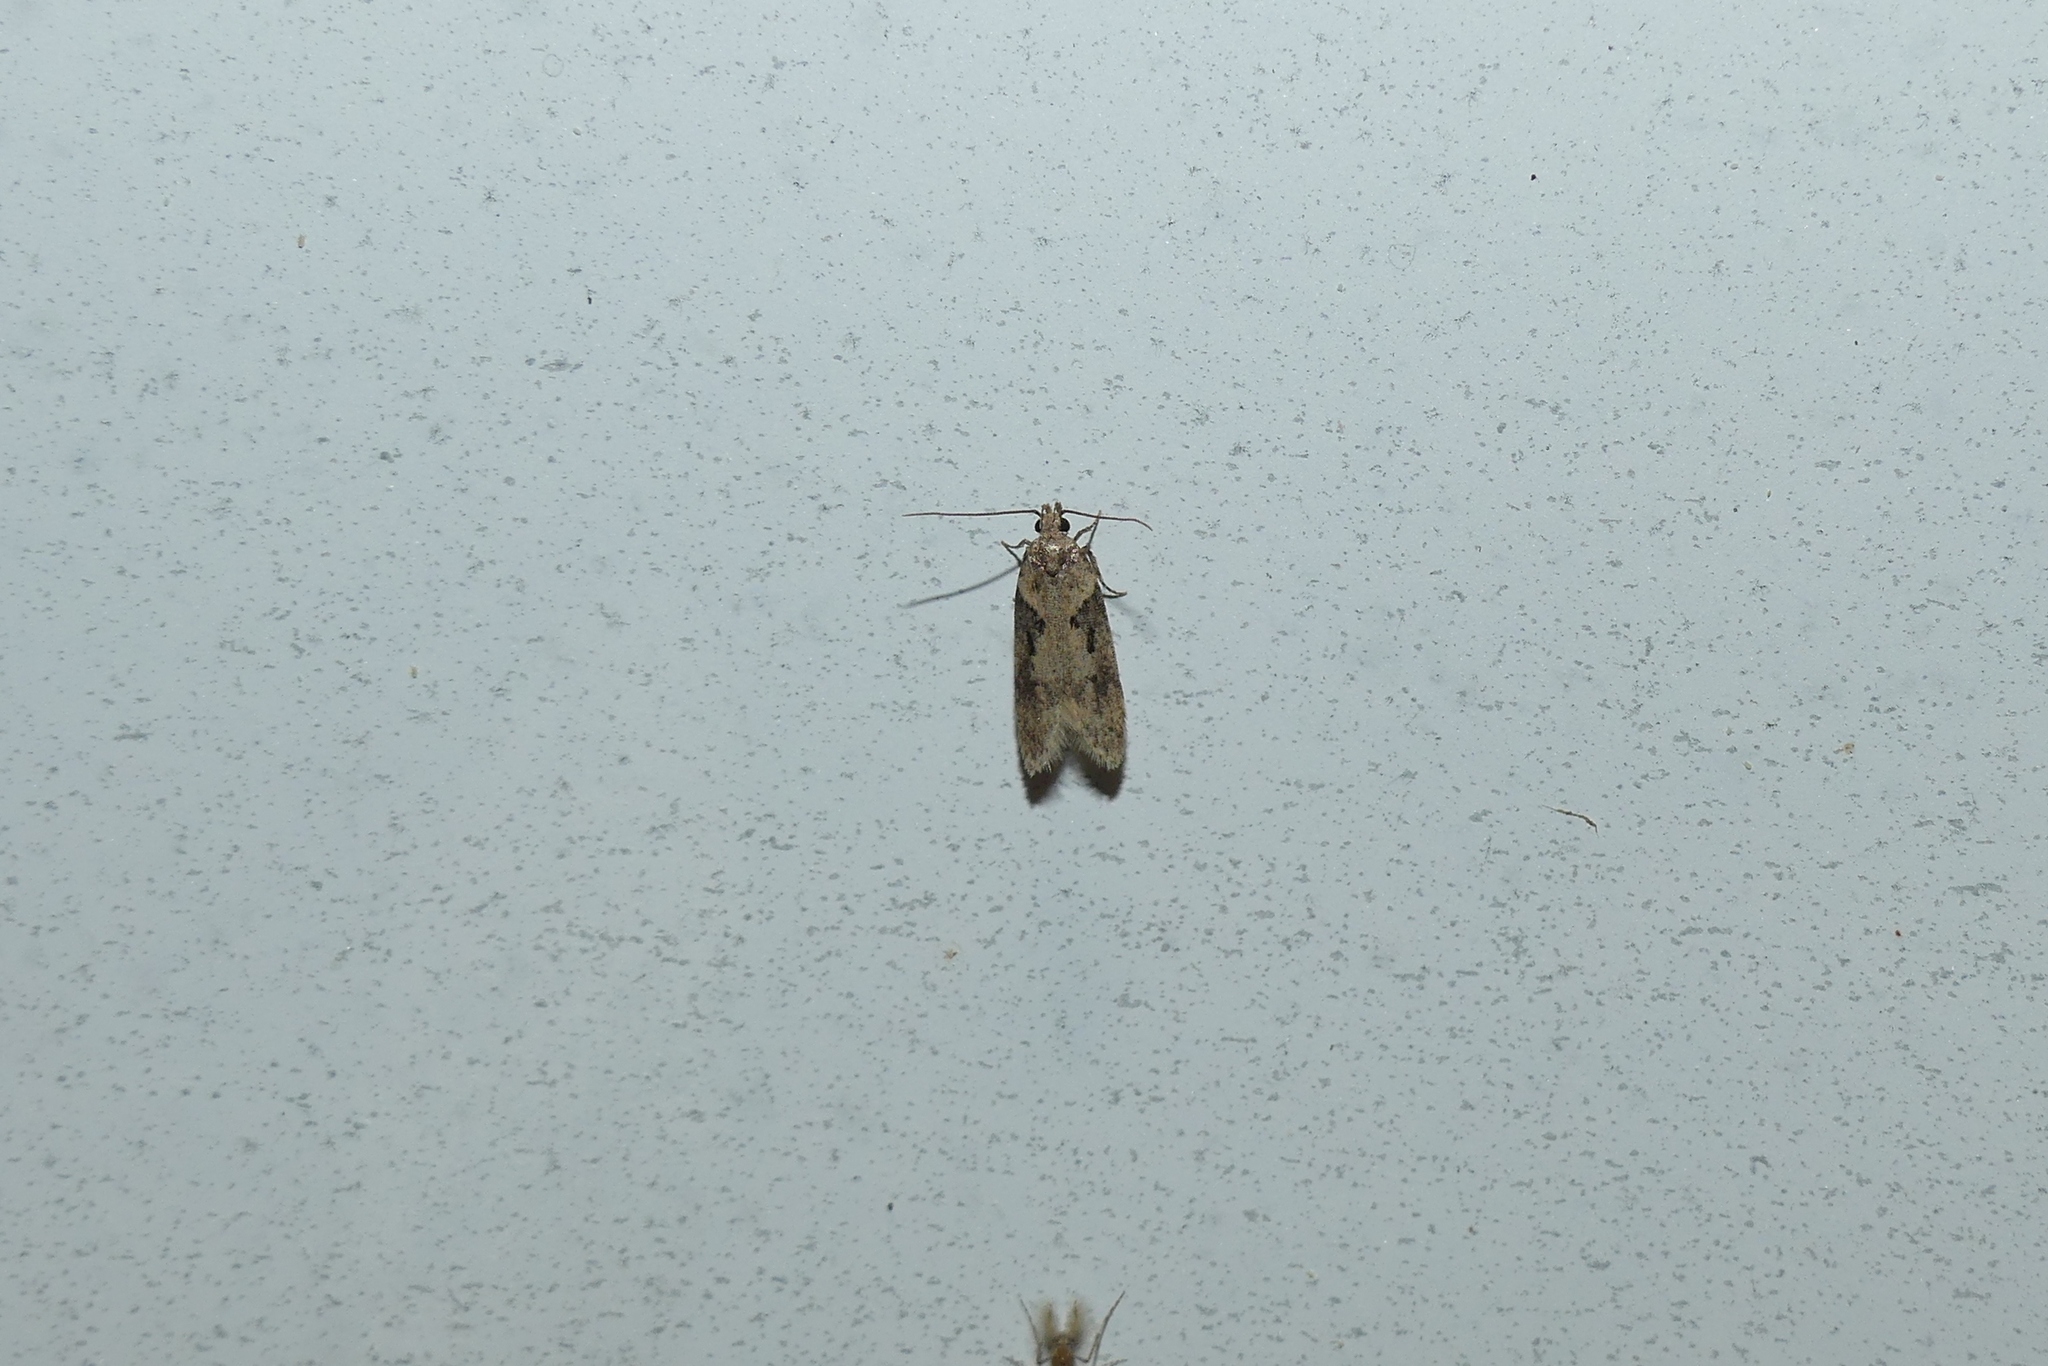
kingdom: Animalia
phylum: Arthropoda
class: Insecta
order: Lepidoptera
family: Gelechiidae
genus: Chionodes
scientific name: Chionodes mediofuscella
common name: Black-smudged chionodes moth
